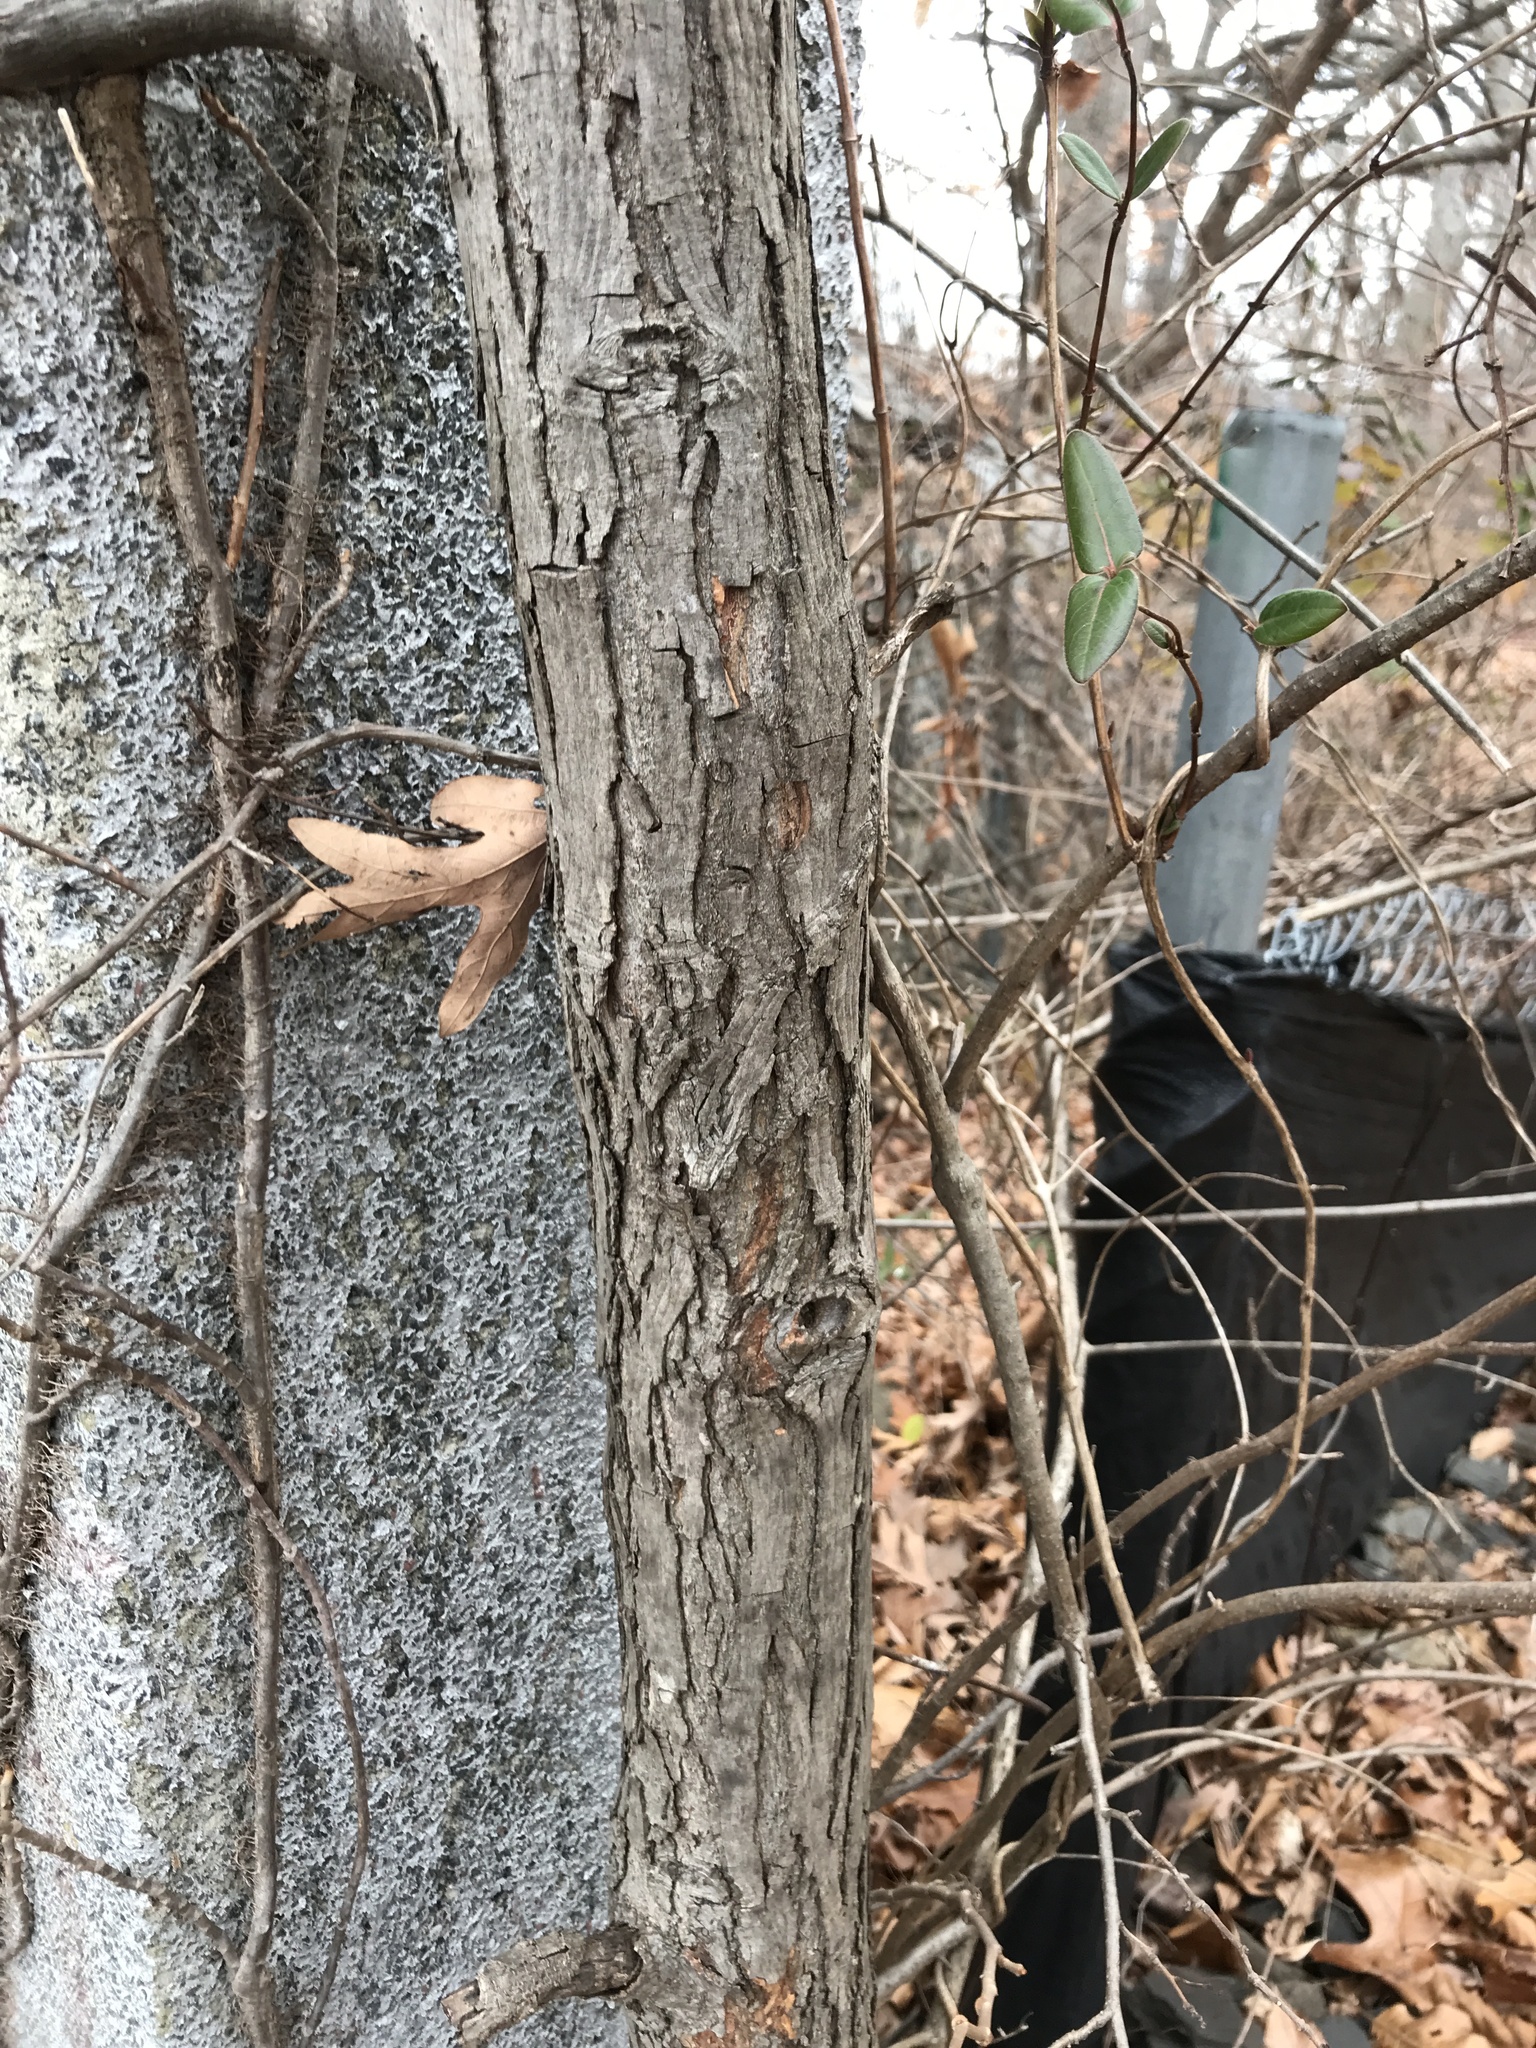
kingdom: Plantae
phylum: Tracheophyta
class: Magnoliopsida
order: Fagales
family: Juglandaceae
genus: Carya
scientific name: Carya glabra
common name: Pignut hickory
